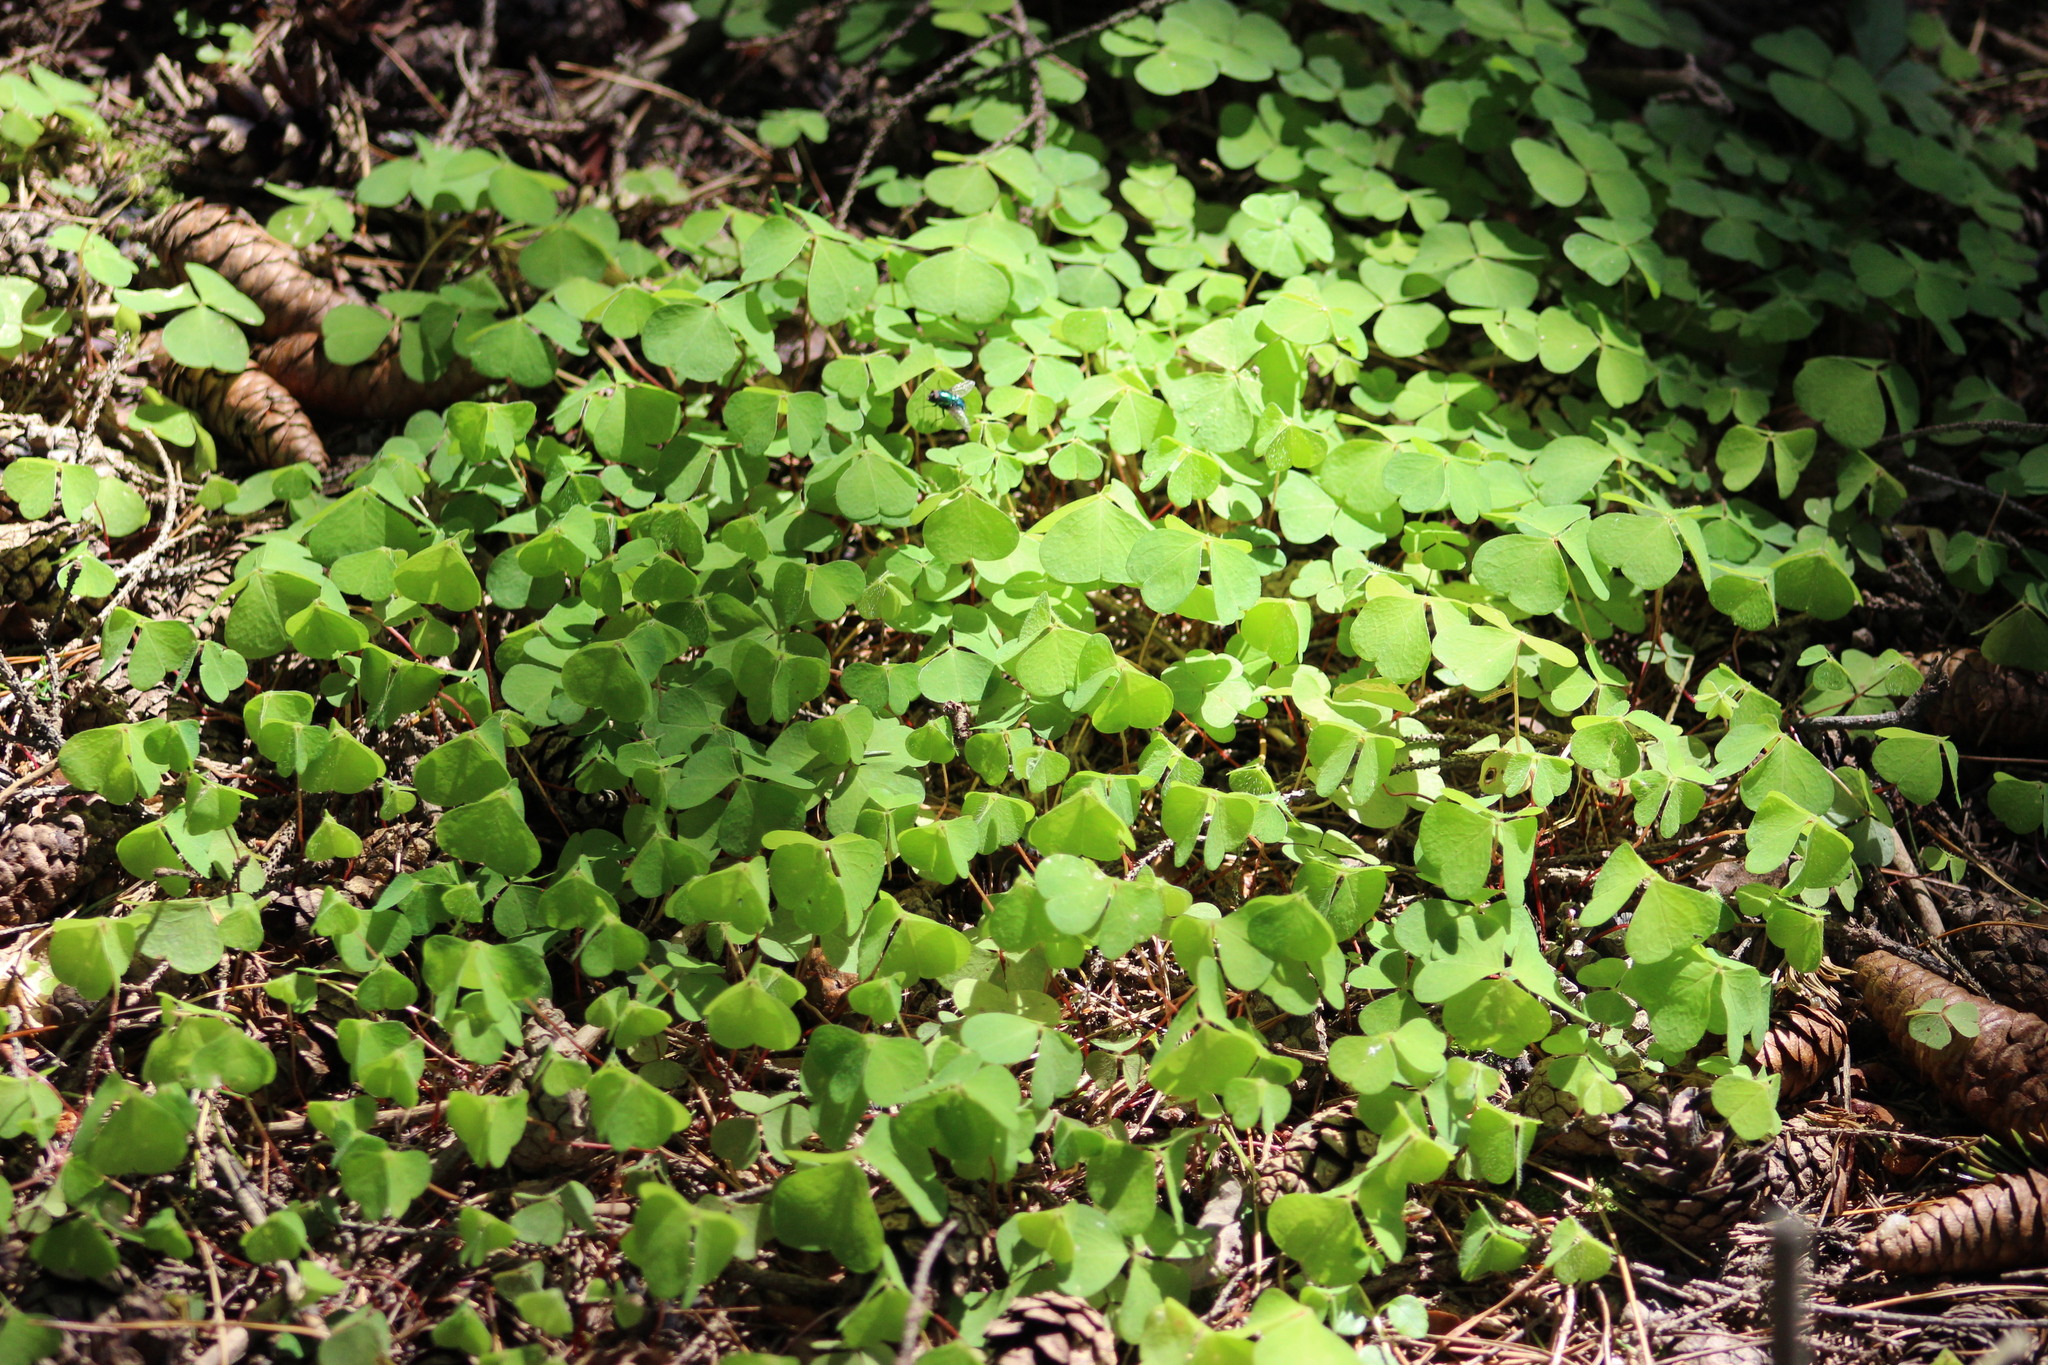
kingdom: Plantae
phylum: Tracheophyta
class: Magnoliopsida
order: Oxalidales
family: Oxalidaceae
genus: Oxalis
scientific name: Oxalis acetosella
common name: Wood-sorrel
